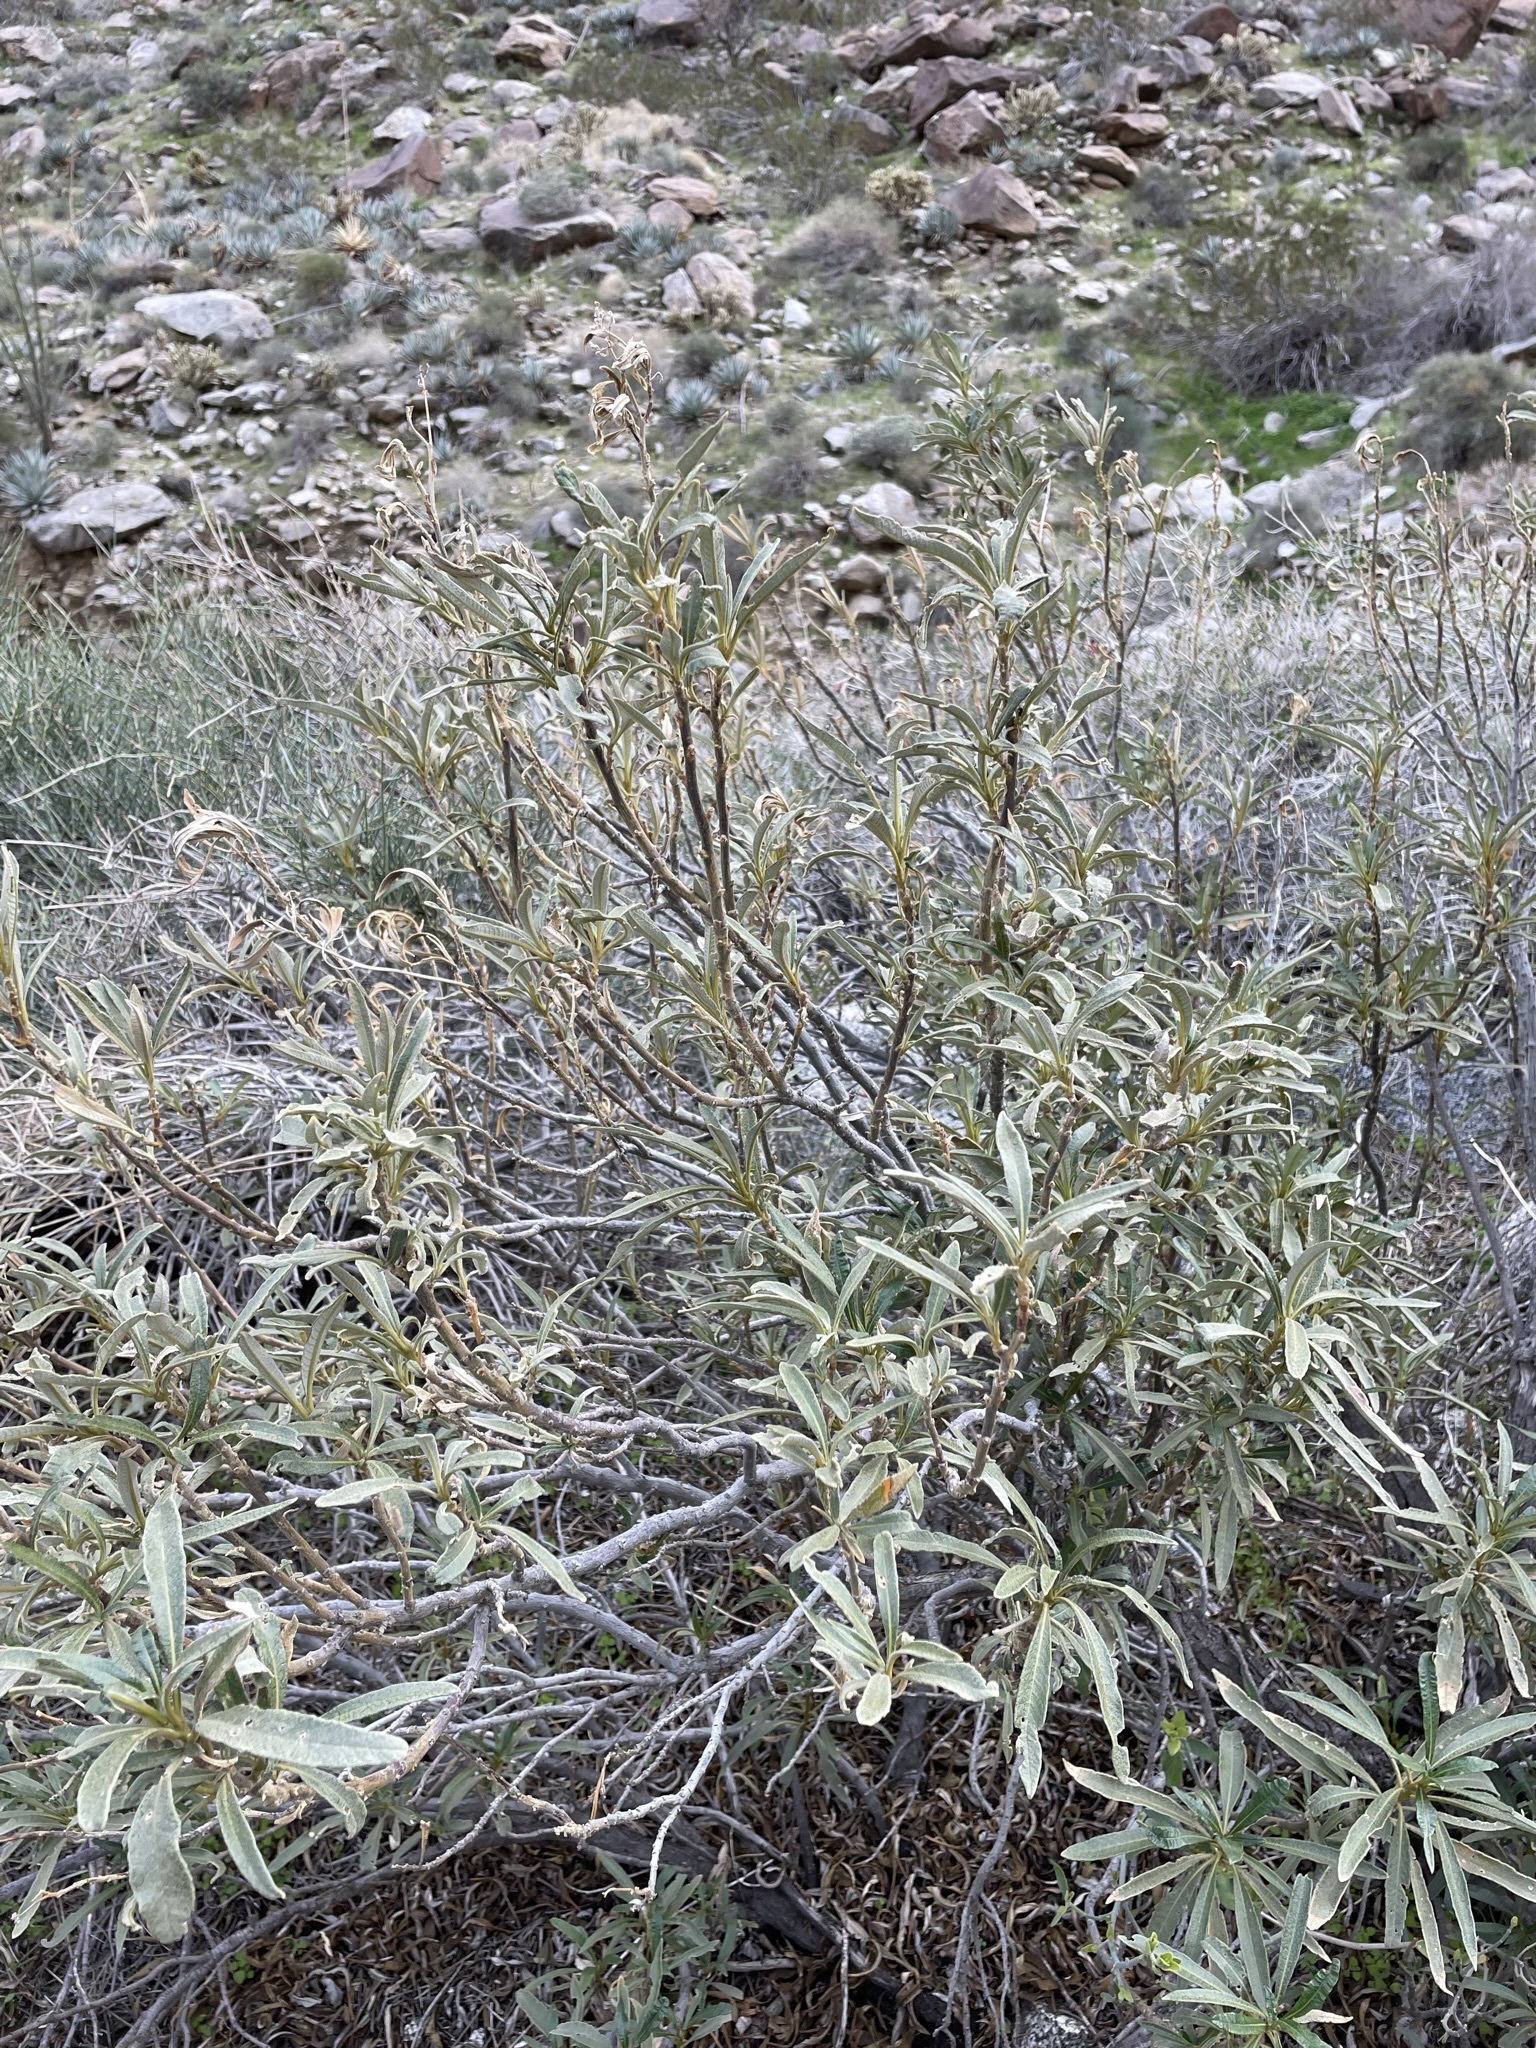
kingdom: Plantae
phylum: Tracheophyta
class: Magnoliopsida
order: Boraginales
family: Namaceae
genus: Eriodictyon
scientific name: Eriodictyon trichocalyx
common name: Hairy yerba-santa
